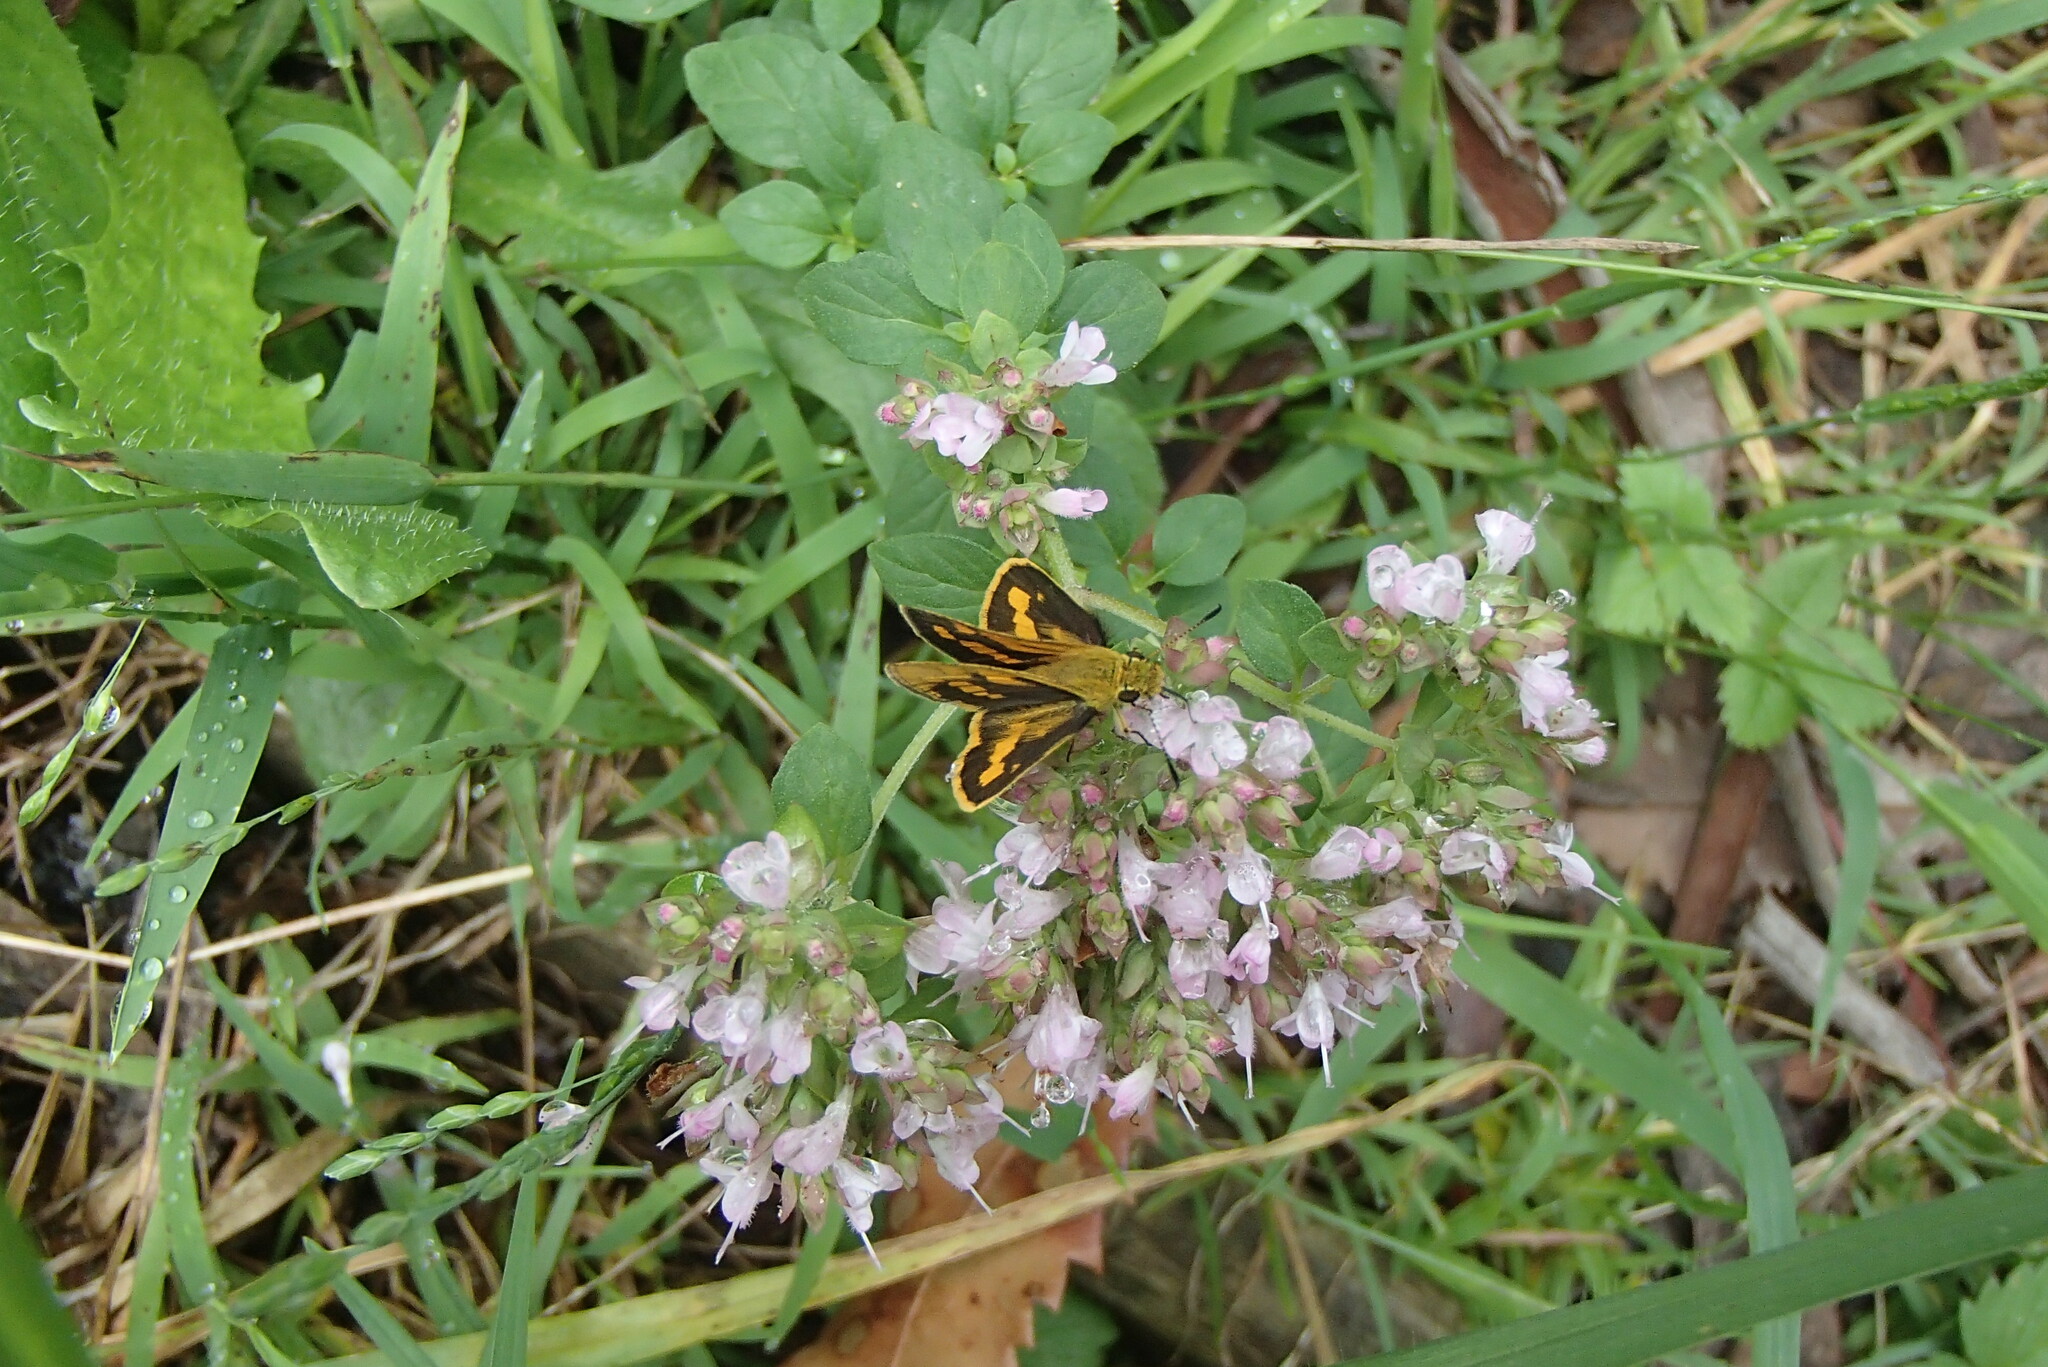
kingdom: Animalia
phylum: Arthropoda
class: Insecta
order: Lepidoptera
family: Hesperiidae
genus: Ocybadistes
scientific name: Ocybadistes walkeri
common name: Yellow-banded dart
